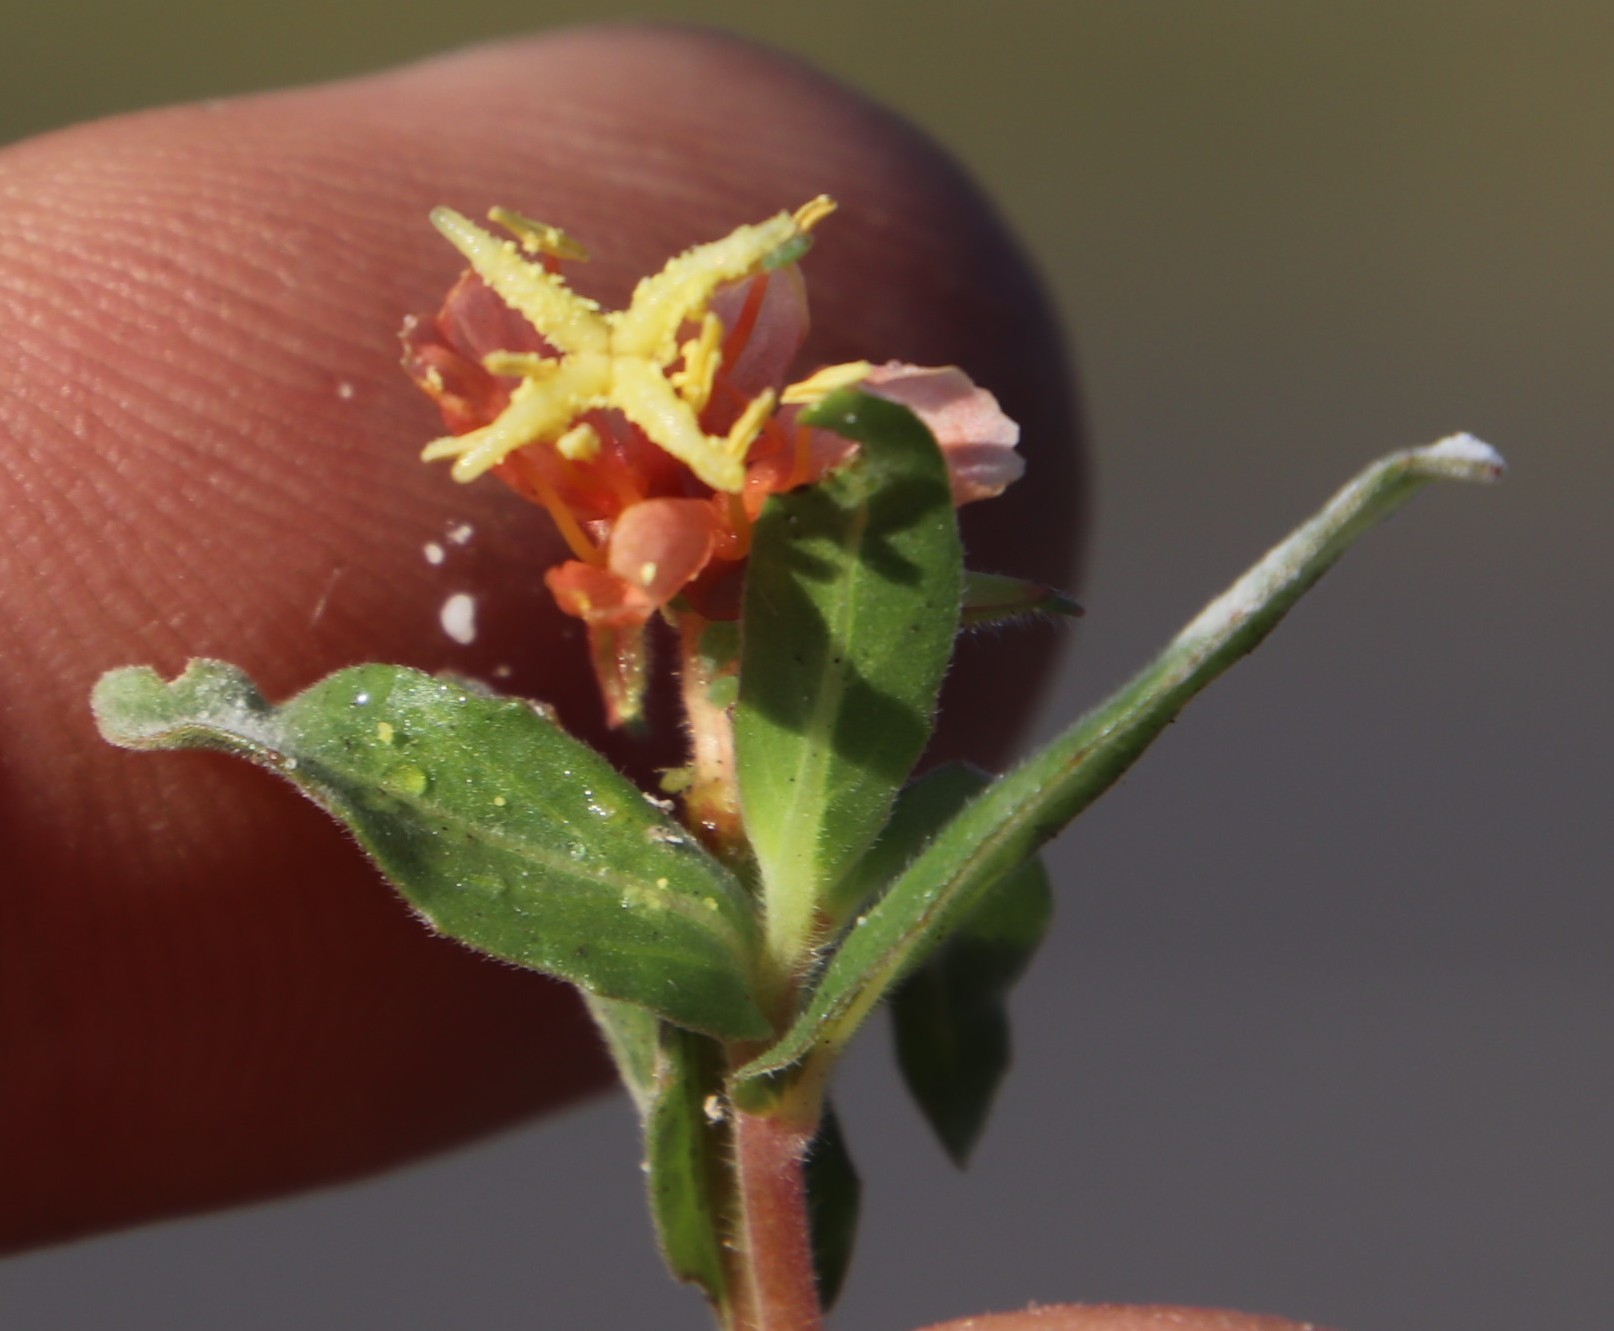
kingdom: Plantae
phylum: Tracheophyta
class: Magnoliopsida
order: Myrtales
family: Onagraceae
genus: Oenothera
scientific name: Oenothera indecora
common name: Small-flower evening-primrose
